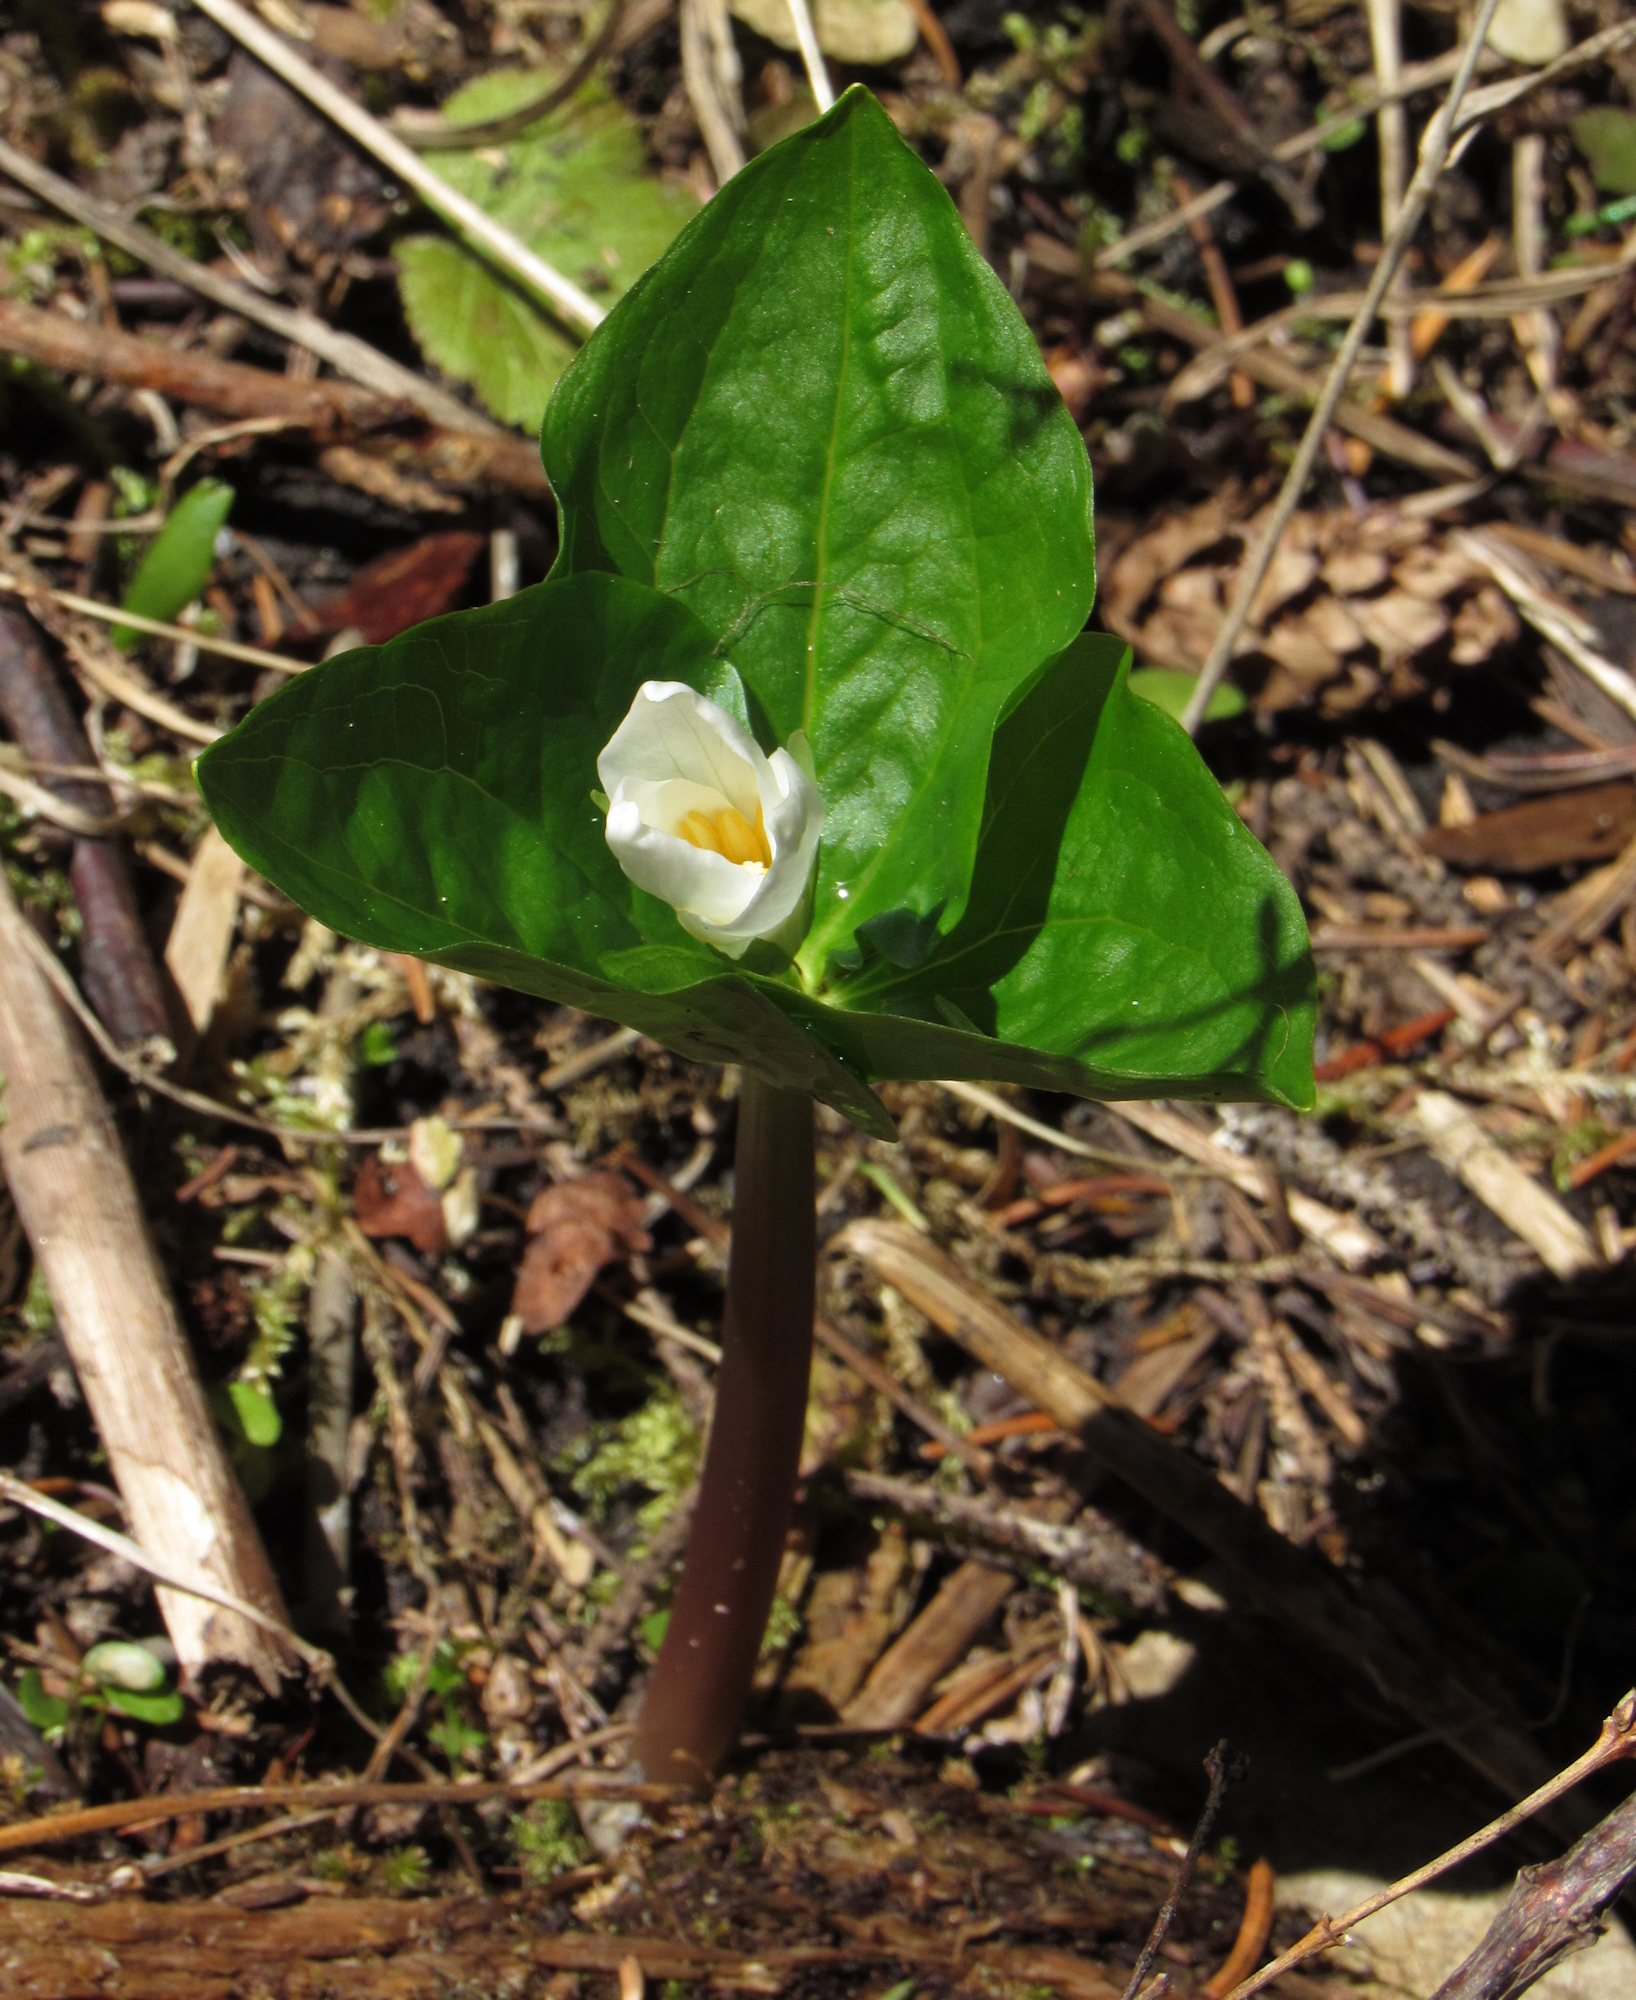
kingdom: Plantae
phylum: Tracheophyta
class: Liliopsida
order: Liliales
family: Melanthiaceae
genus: Trillium
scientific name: Trillium ovatum
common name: Pacific trillium
